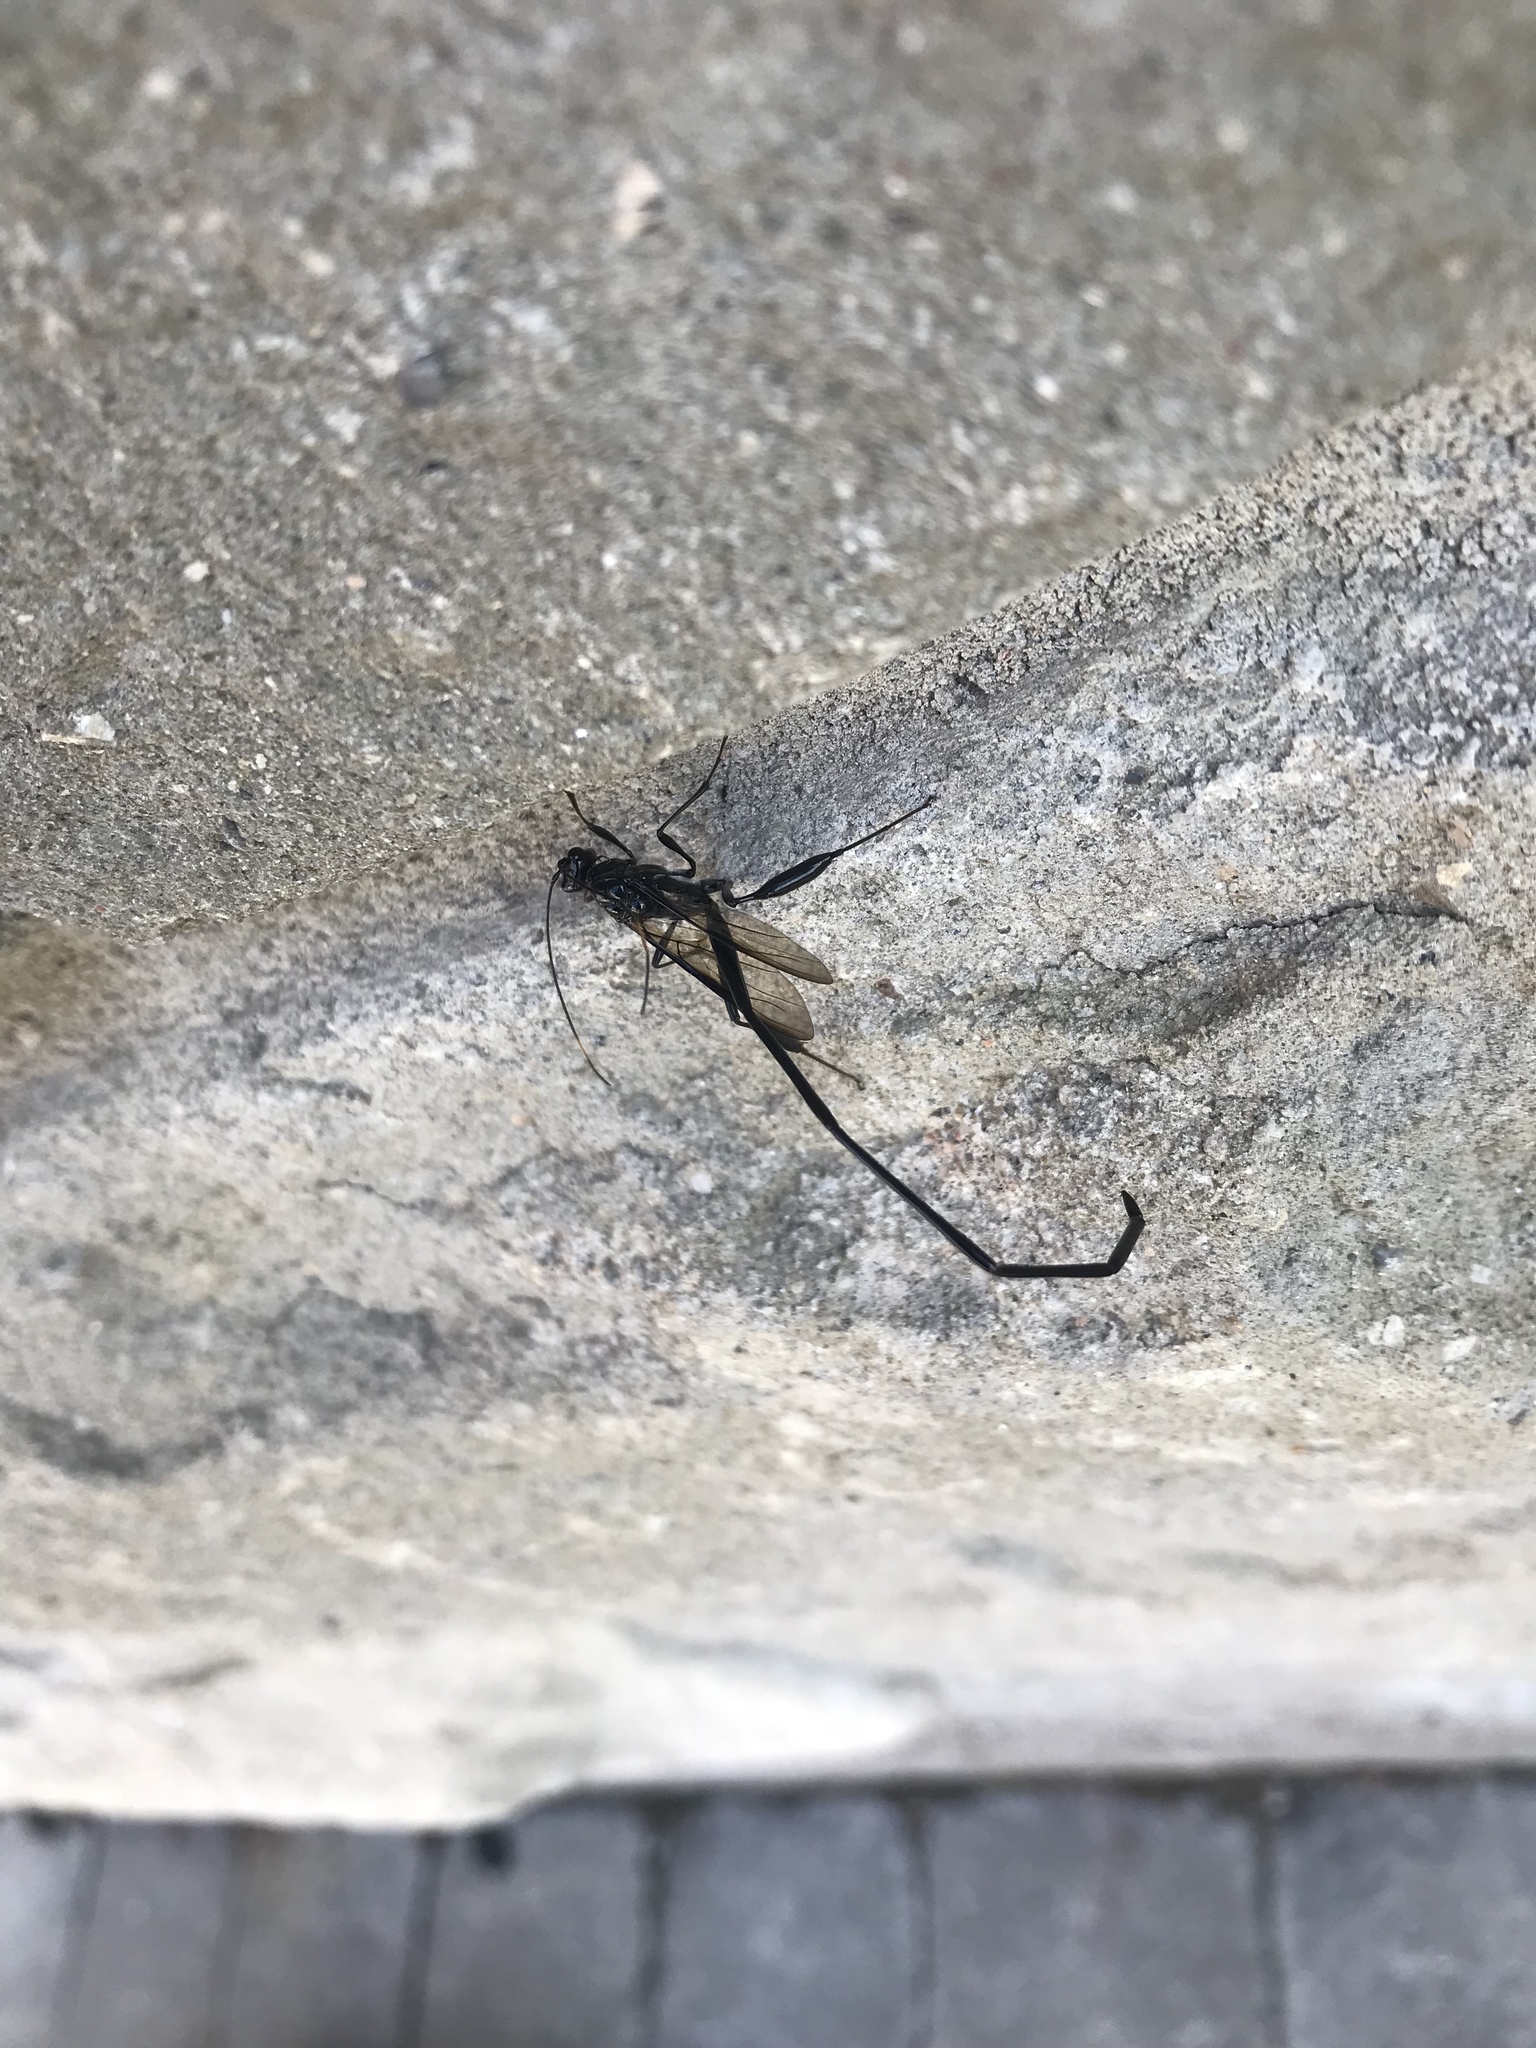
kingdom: Animalia
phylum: Arthropoda
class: Insecta
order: Hymenoptera
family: Pelecinidae
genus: Pelecinus
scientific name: Pelecinus polyturator
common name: American pelecinid wasp
